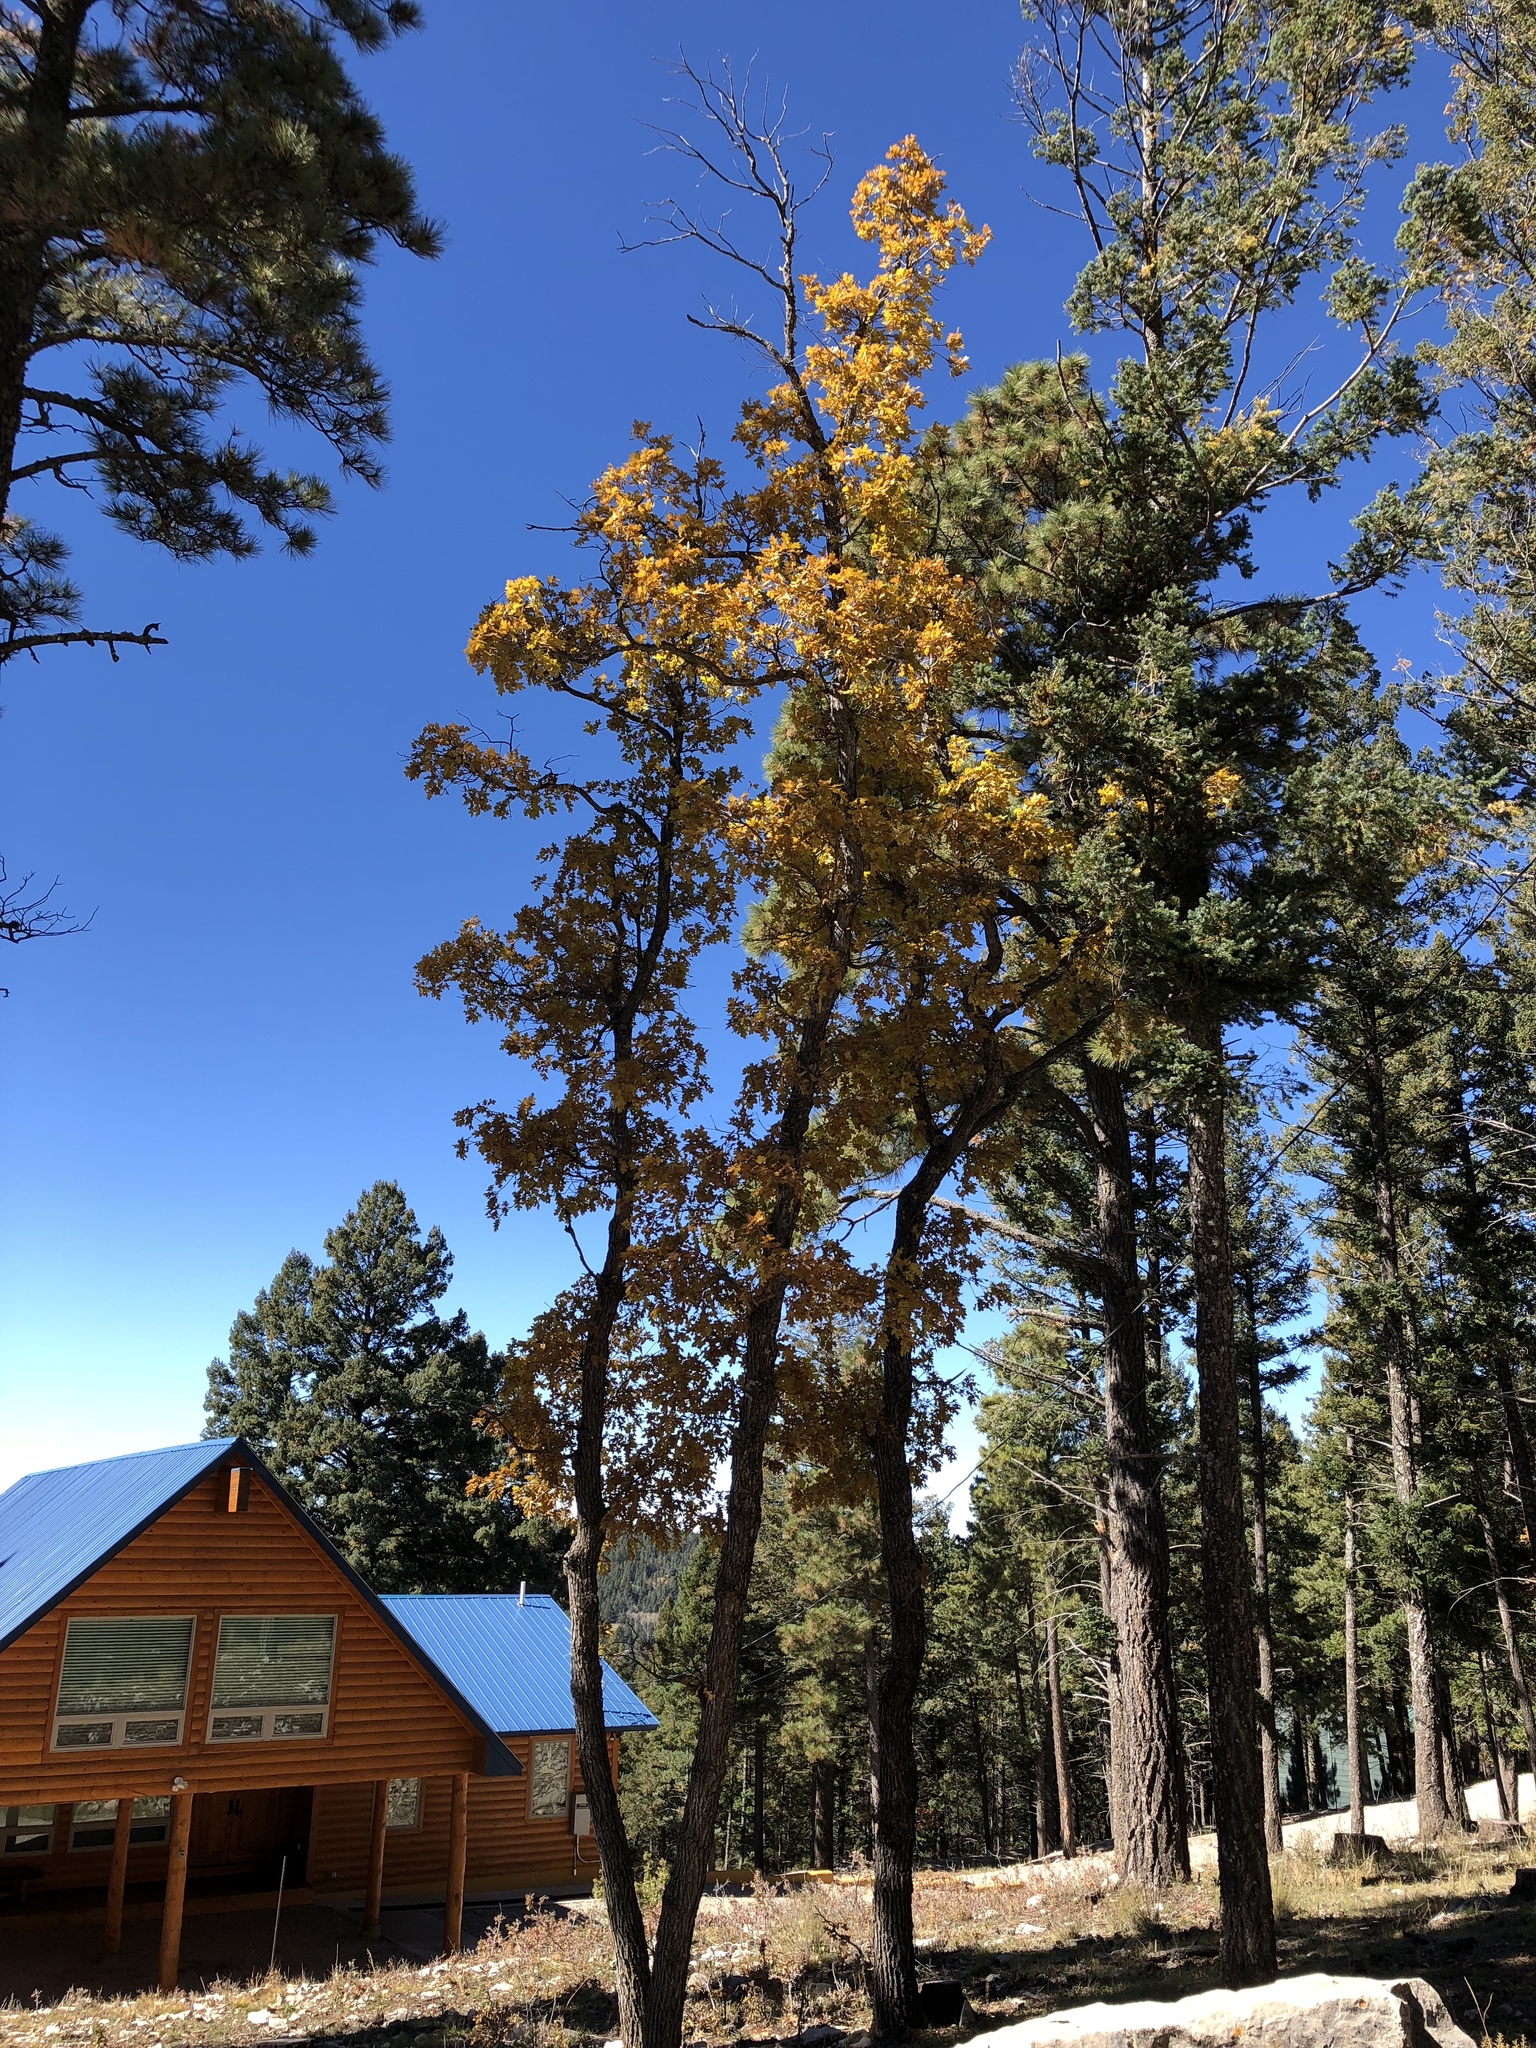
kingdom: Plantae
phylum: Tracheophyta
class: Magnoliopsida
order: Fagales
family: Fagaceae
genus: Quercus
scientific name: Quercus gambelii
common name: Gambel oak
